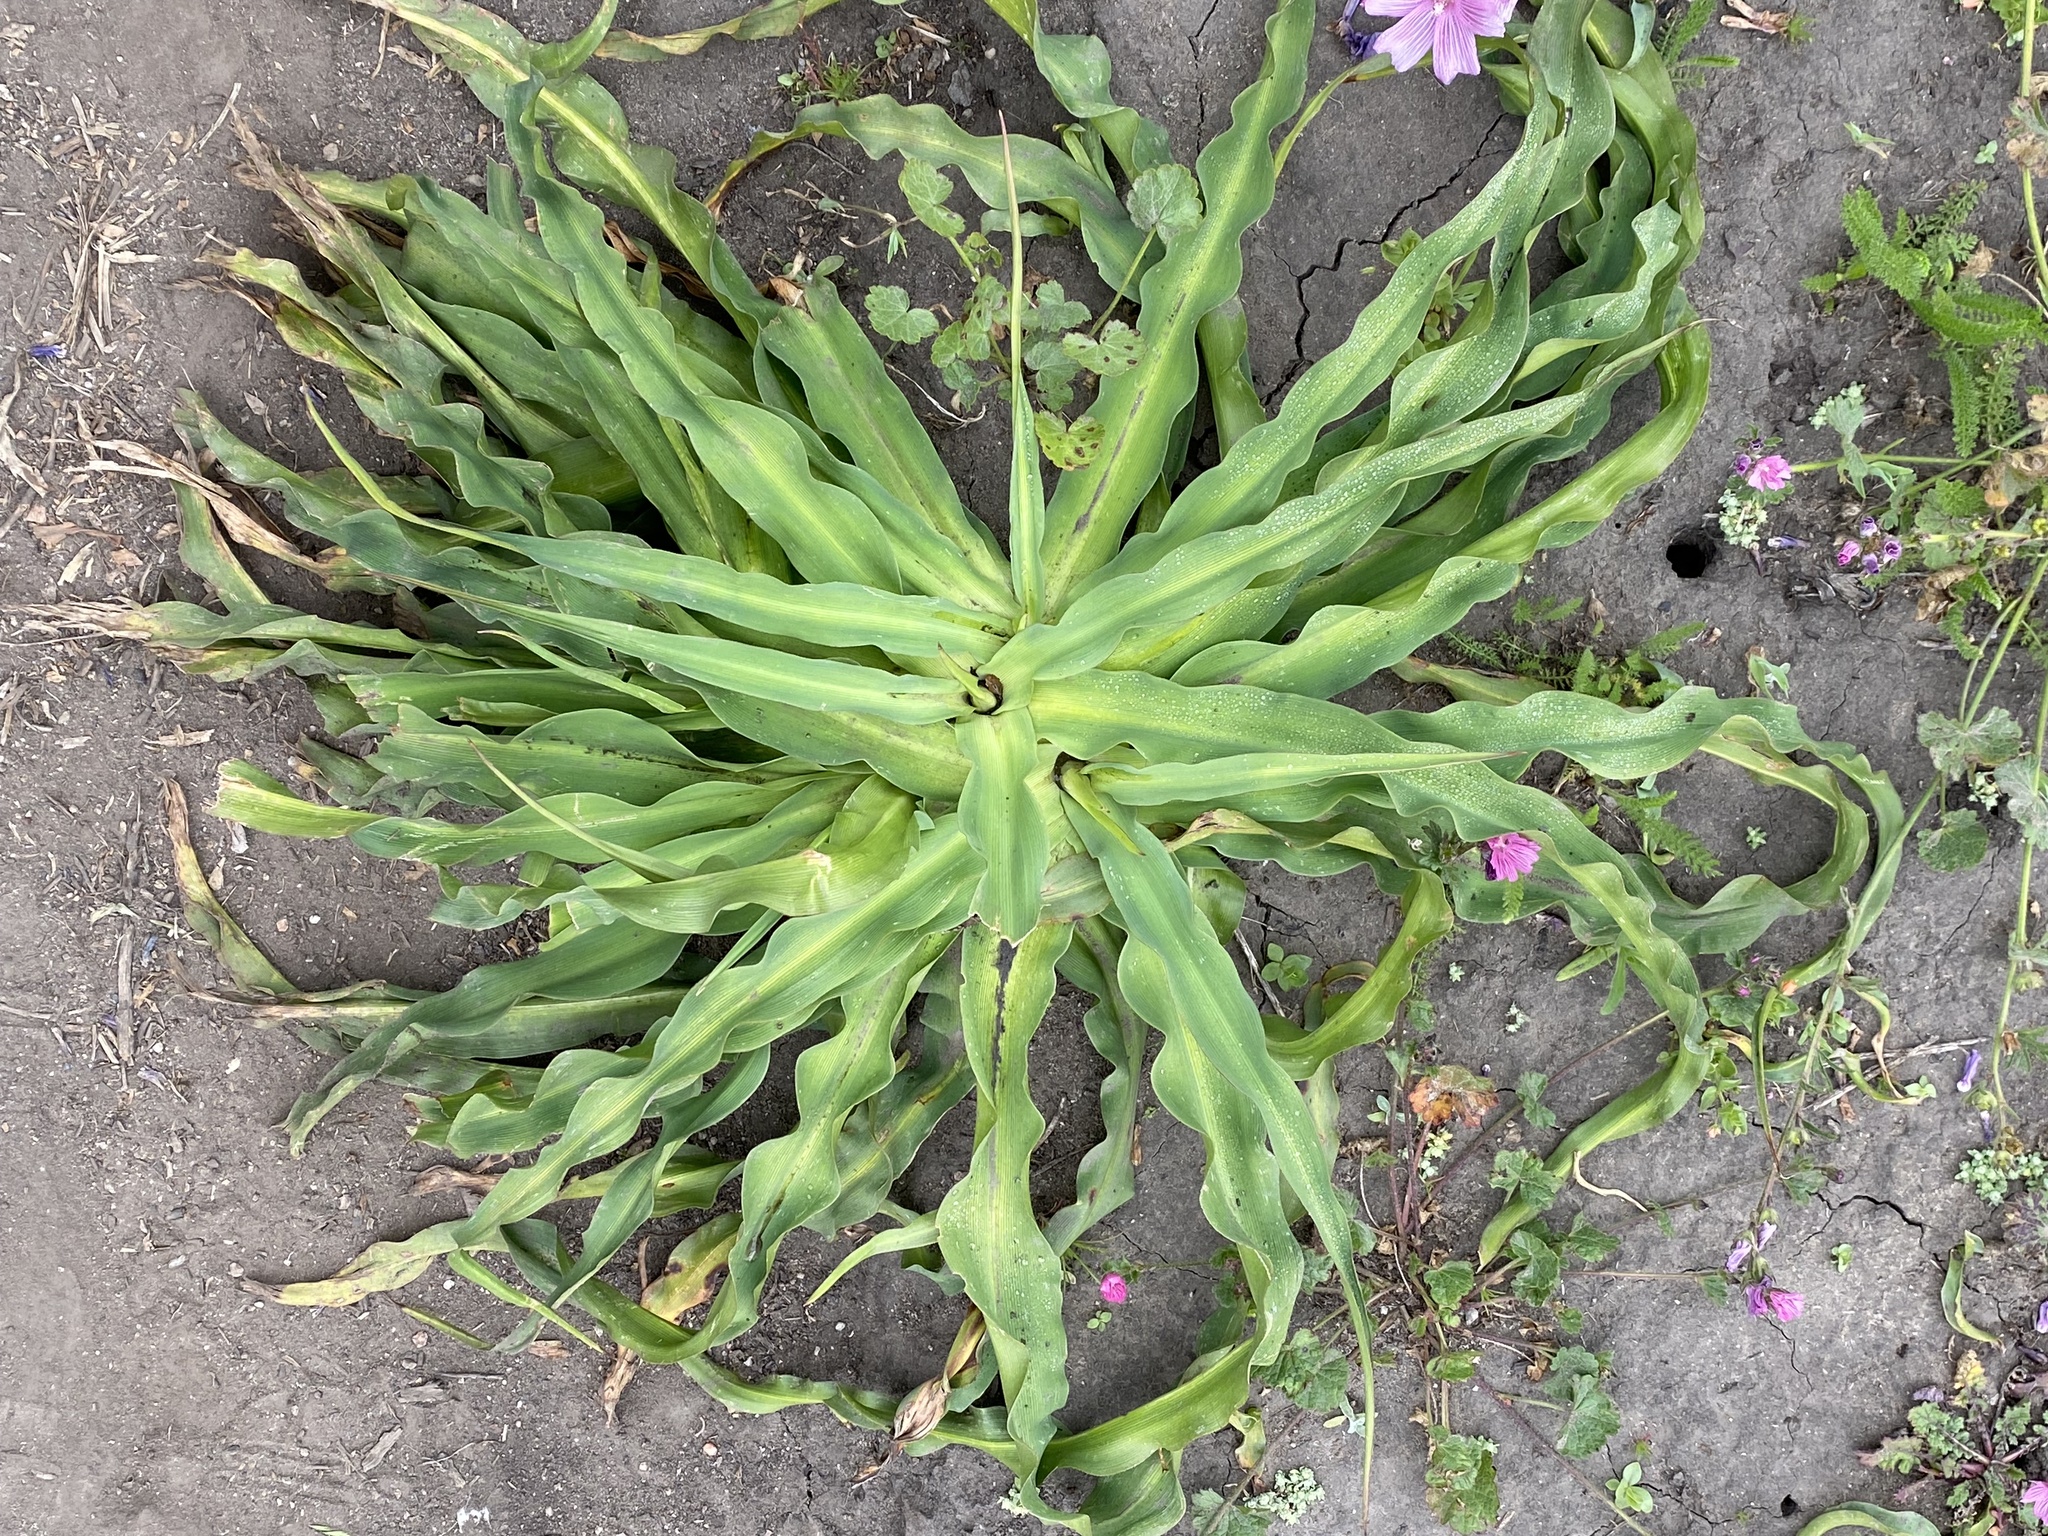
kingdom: Plantae
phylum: Tracheophyta
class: Liliopsida
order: Asparagales
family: Asparagaceae
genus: Chlorogalum
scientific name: Chlorogalum pomeridianum
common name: Amole
